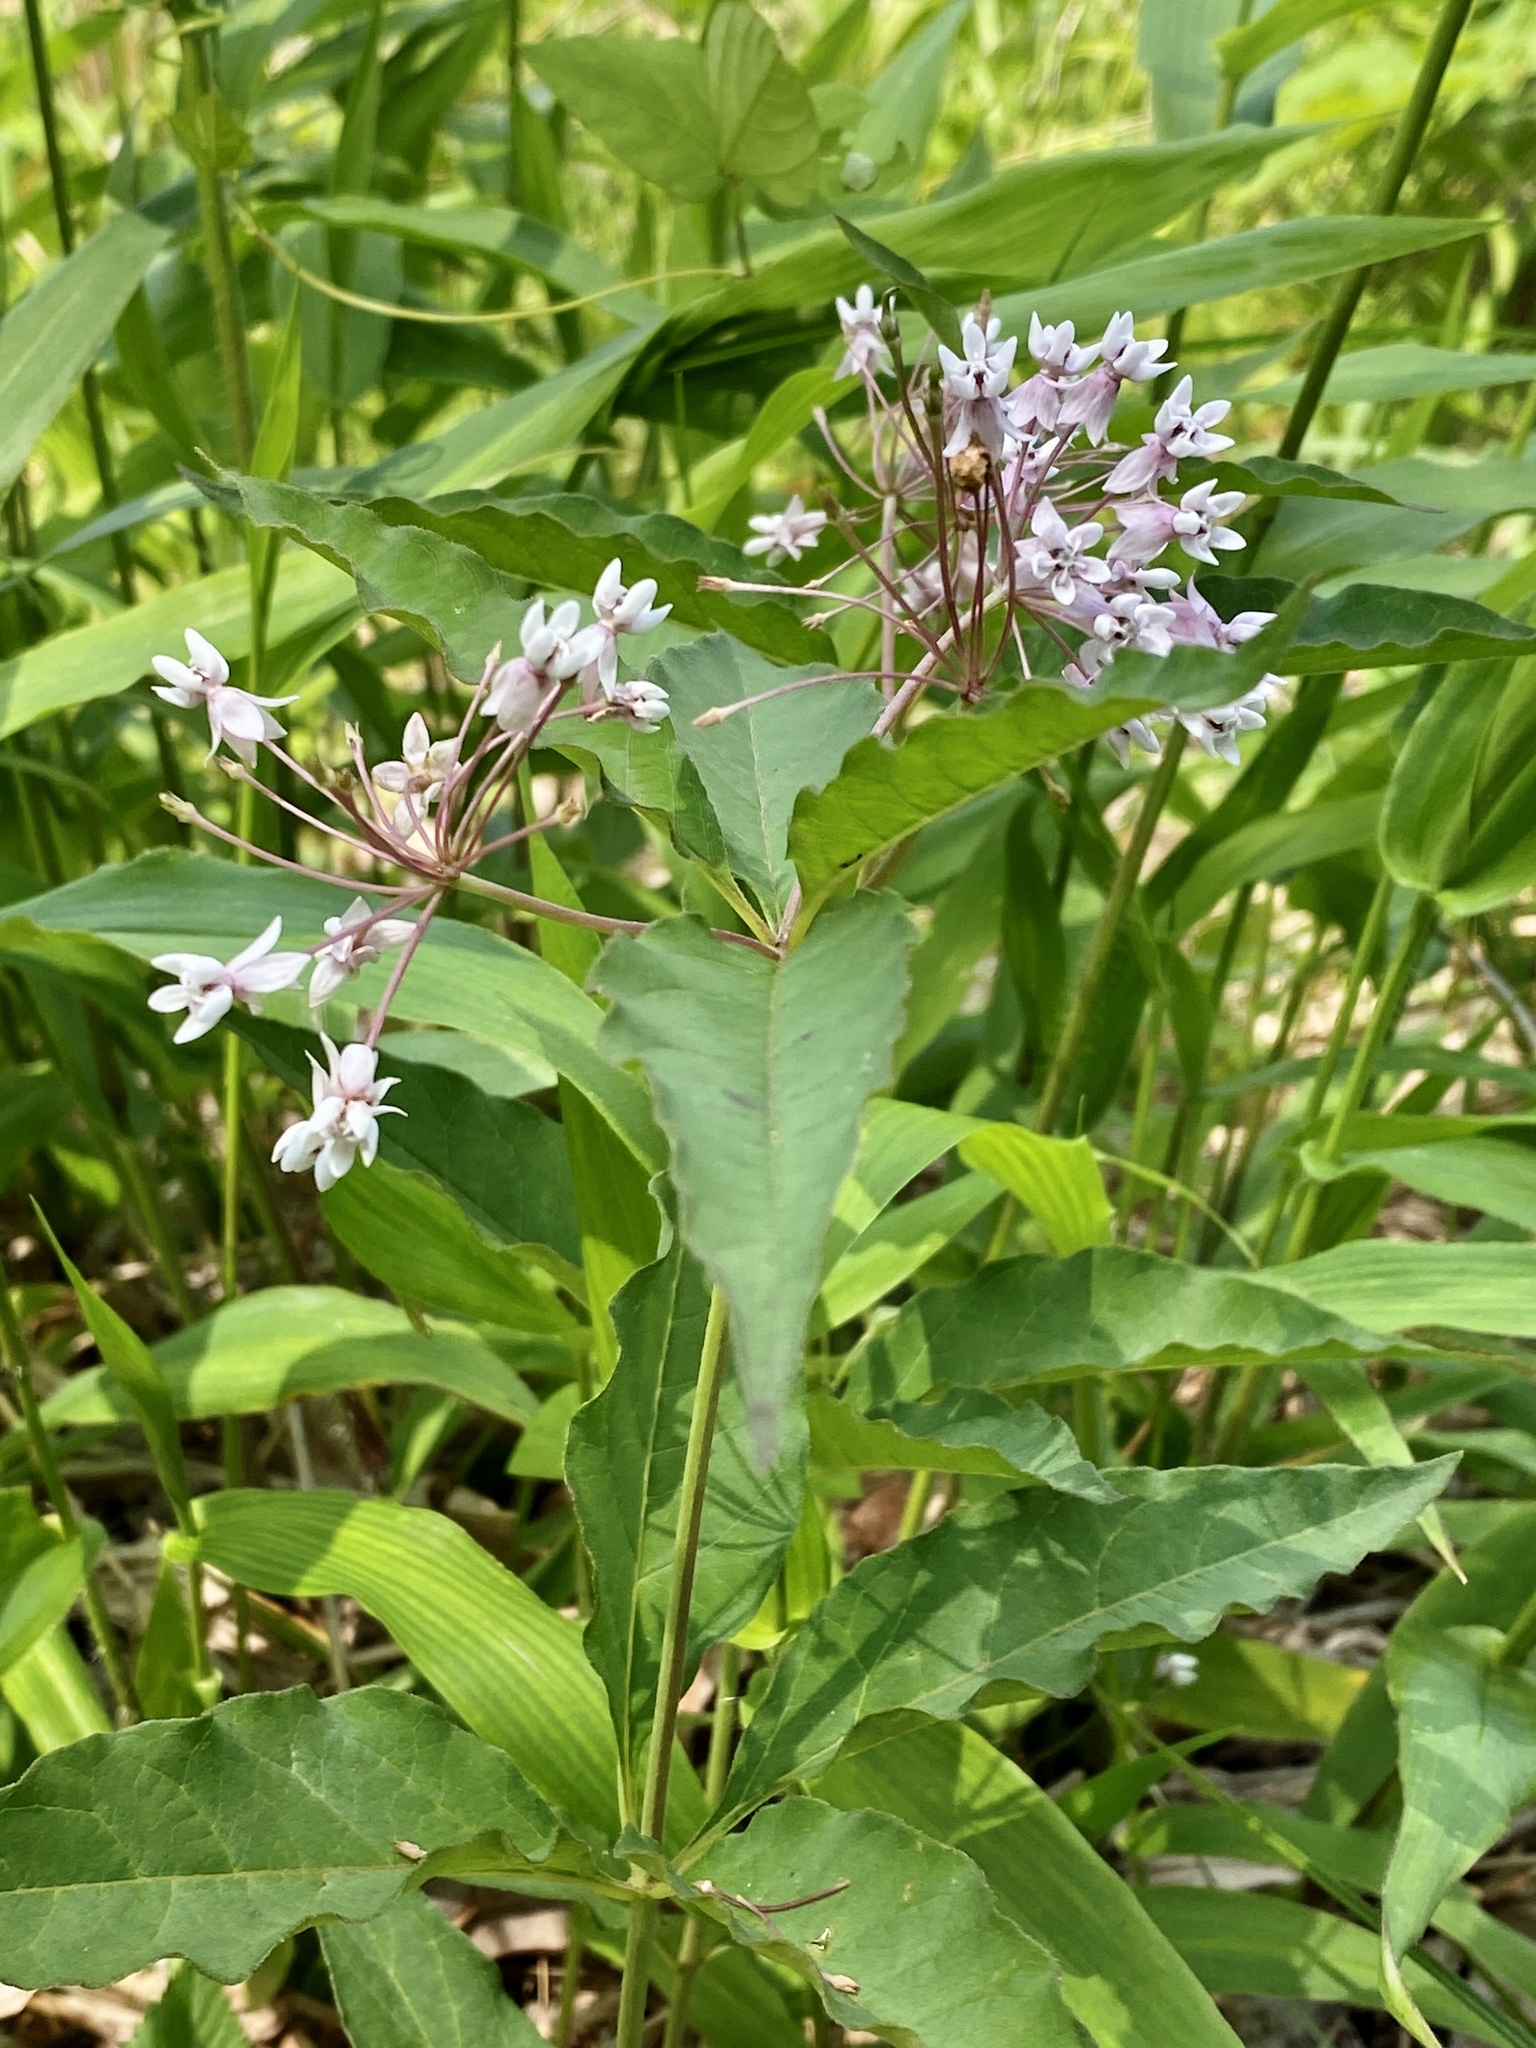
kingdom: Plantae
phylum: Tracheophyta
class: Magnoliopsida
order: Gentianales
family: Apocynaceae
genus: Asclepias
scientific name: Asclepias quadrifolia
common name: Whorled milkweed
